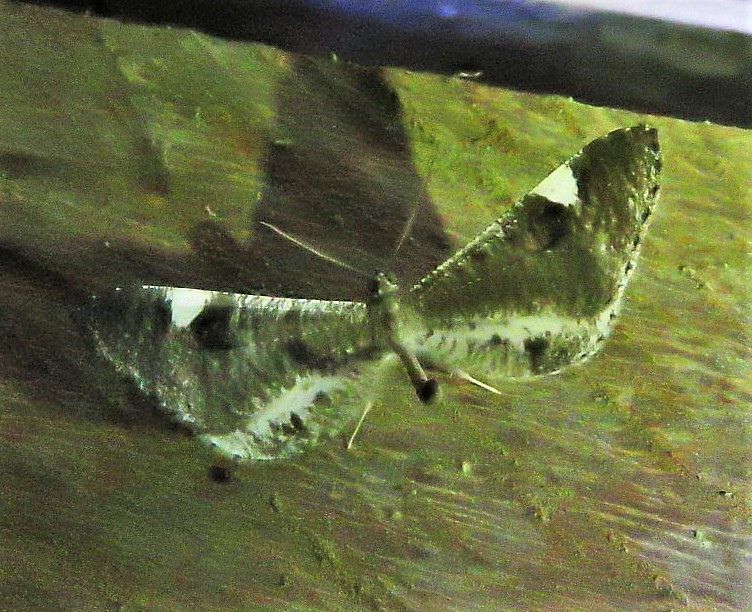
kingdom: Animalia
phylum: Arthropoda
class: Insecta
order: Lepidoptera
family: Hedylidae
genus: Macrosoma
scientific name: Macrosoma conifera
